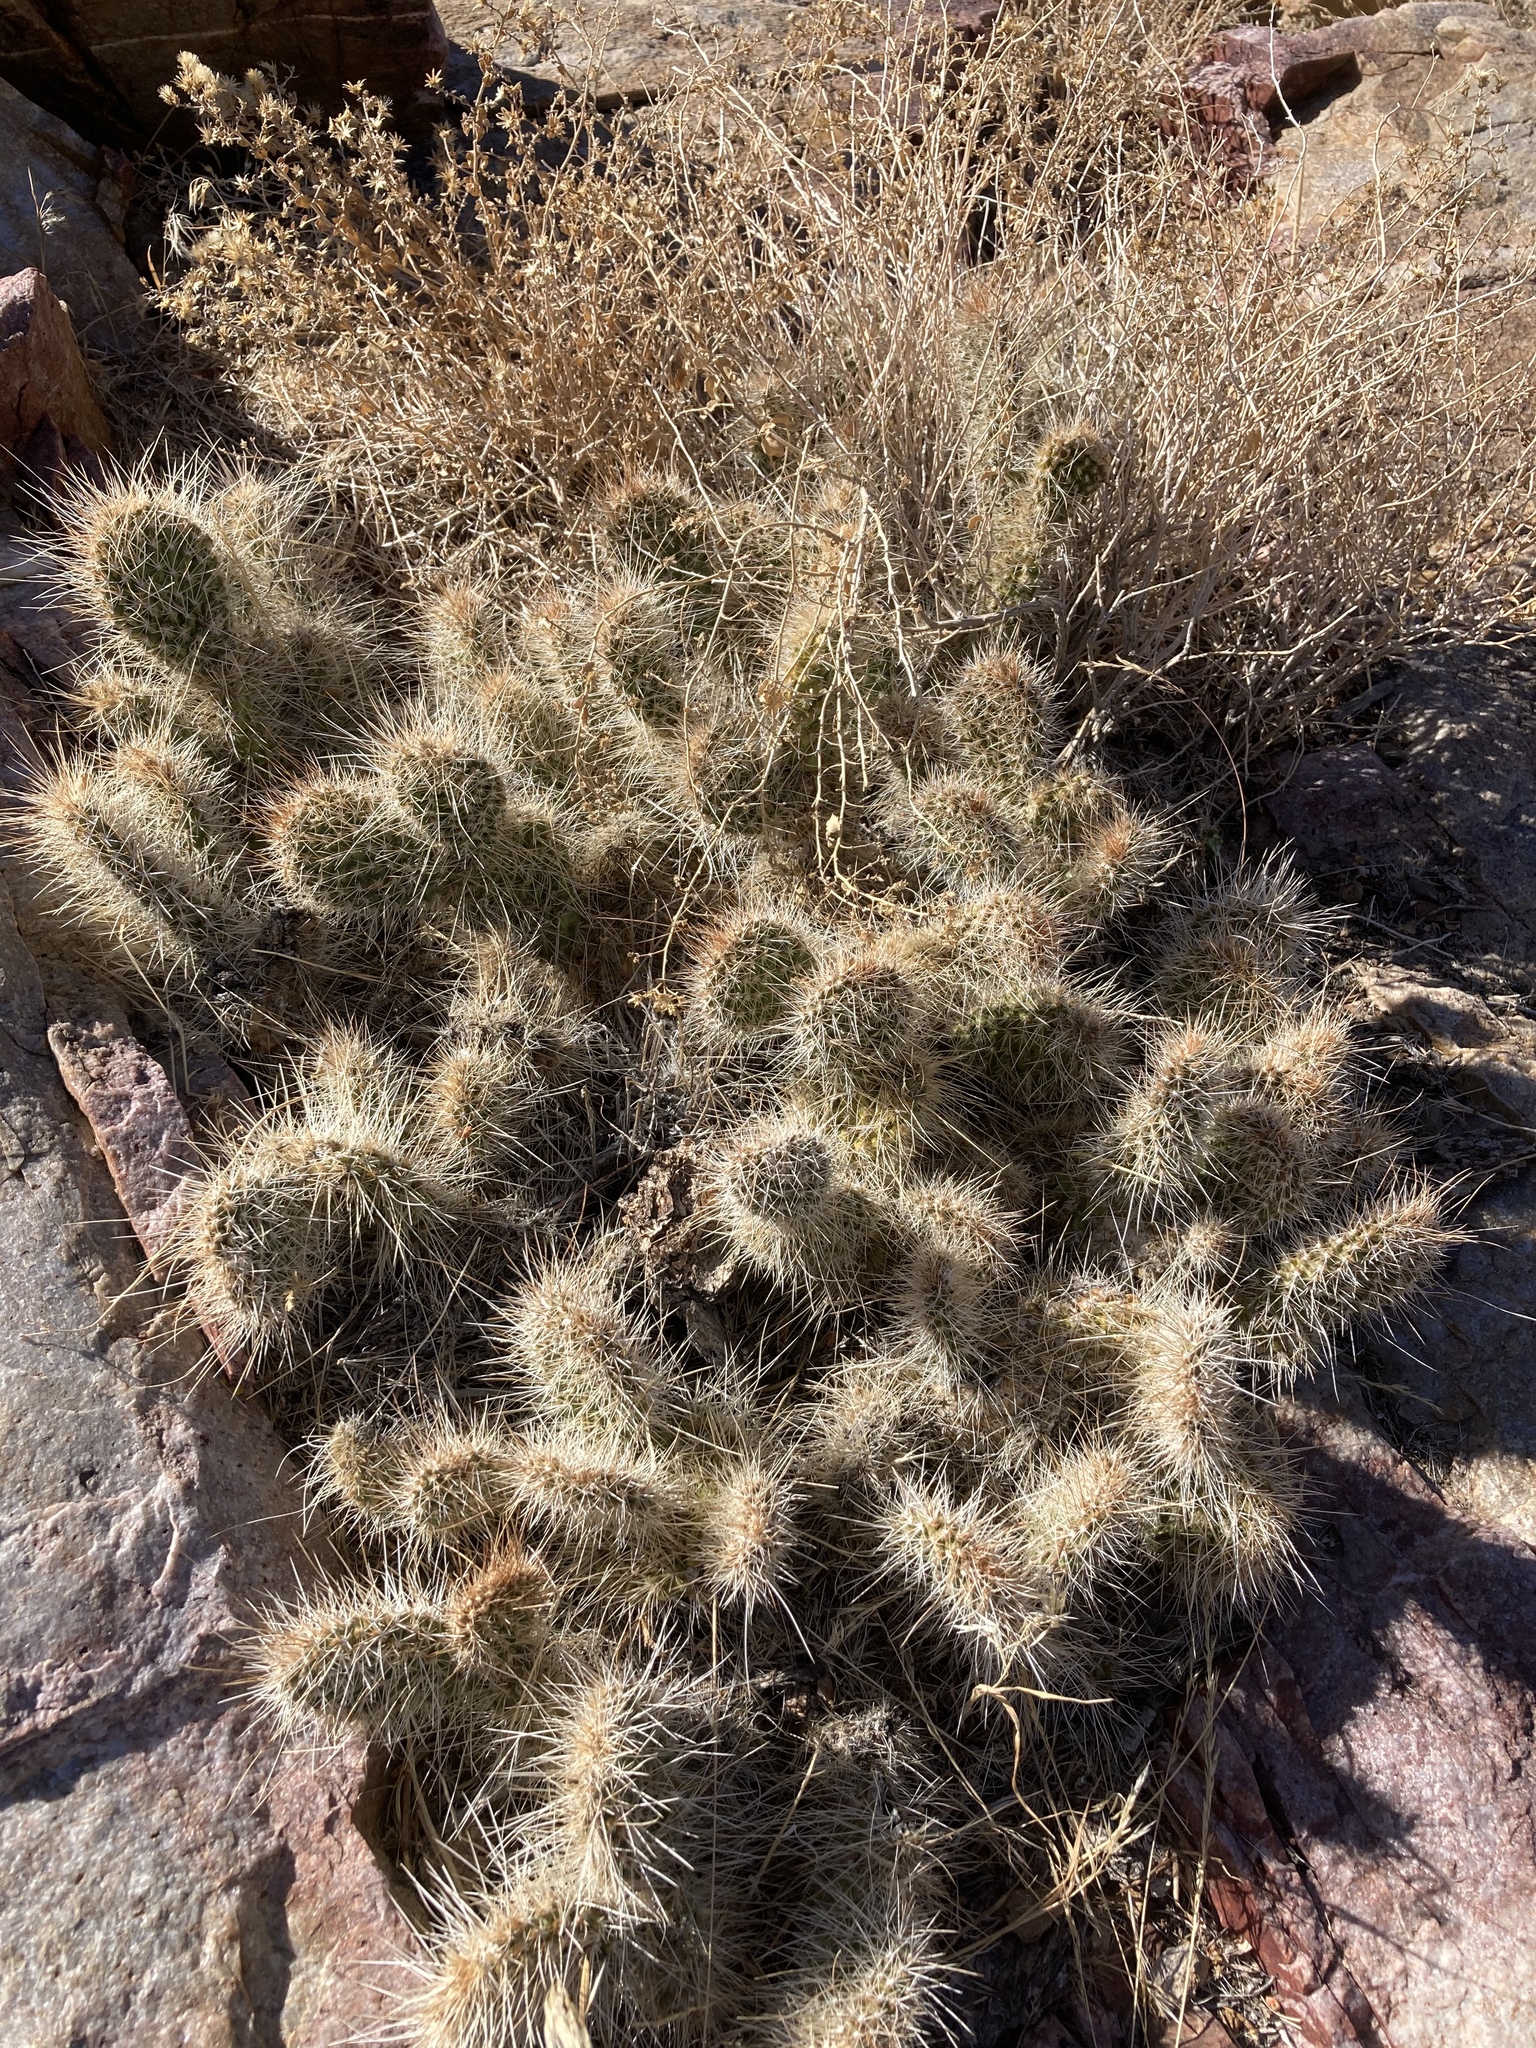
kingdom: Plantae
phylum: Tracheophyta
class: Magnoliopsida
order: Caryophyllales
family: Cactaceae
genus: Opuntia
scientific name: Opuntia polyacantha
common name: Plains prickly-pear
